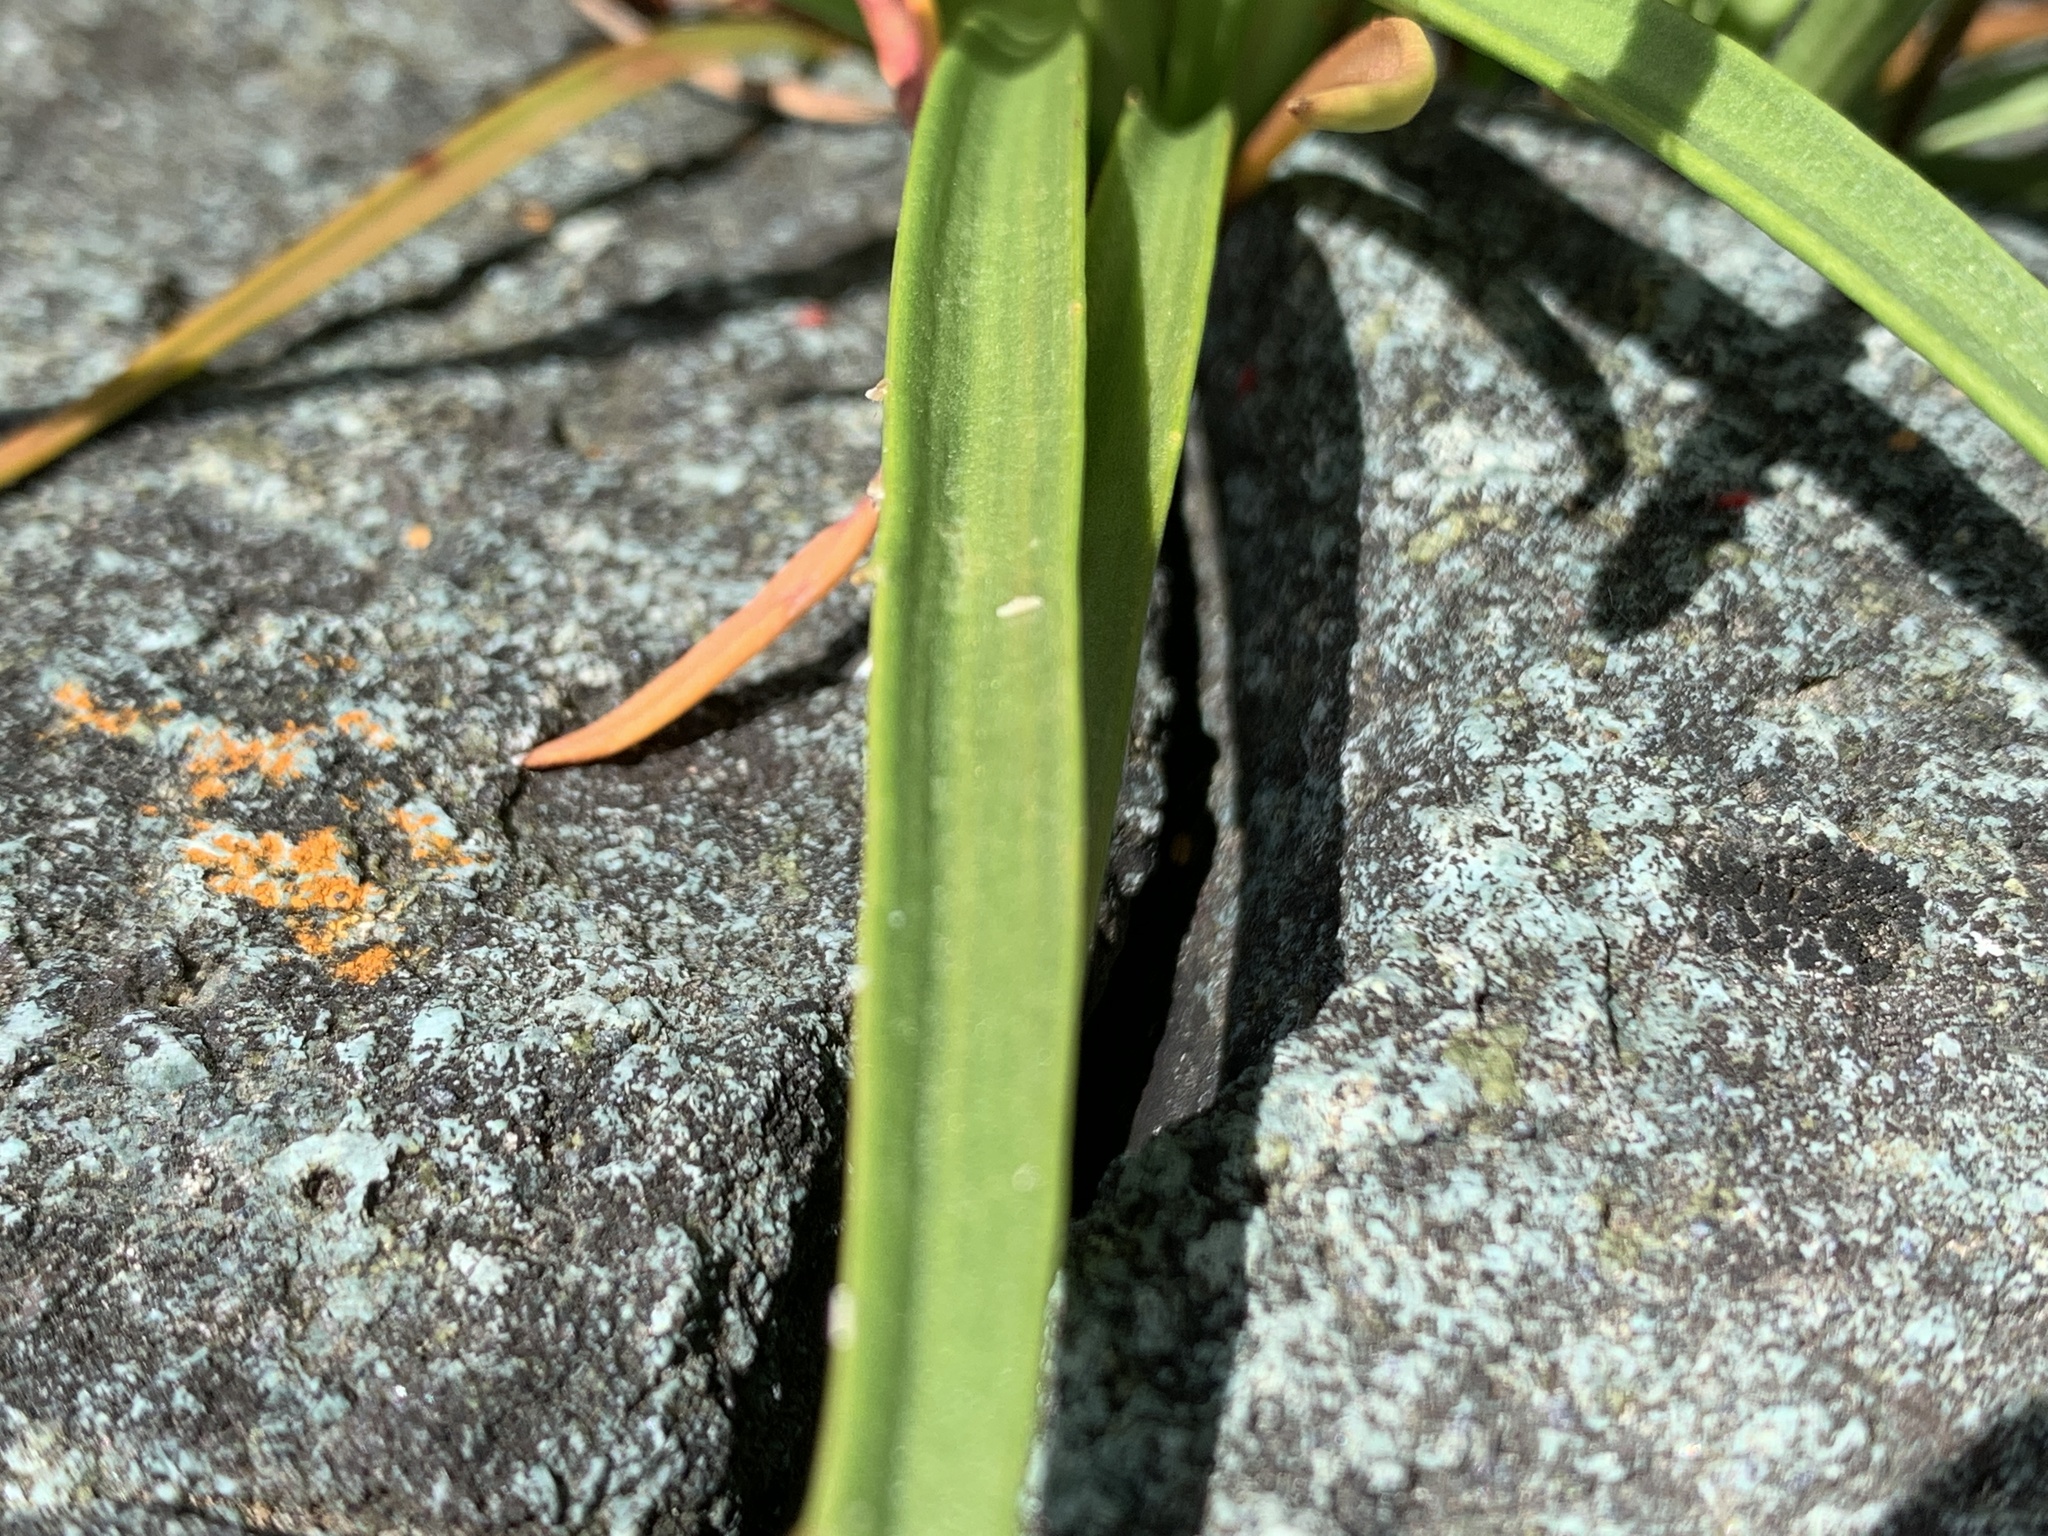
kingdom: Plantae
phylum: Tracheophyta
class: Magnoliopsida
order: Lamiales
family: Plantaginaceae
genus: Plantago
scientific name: Plantago maritima
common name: Sea plantain
